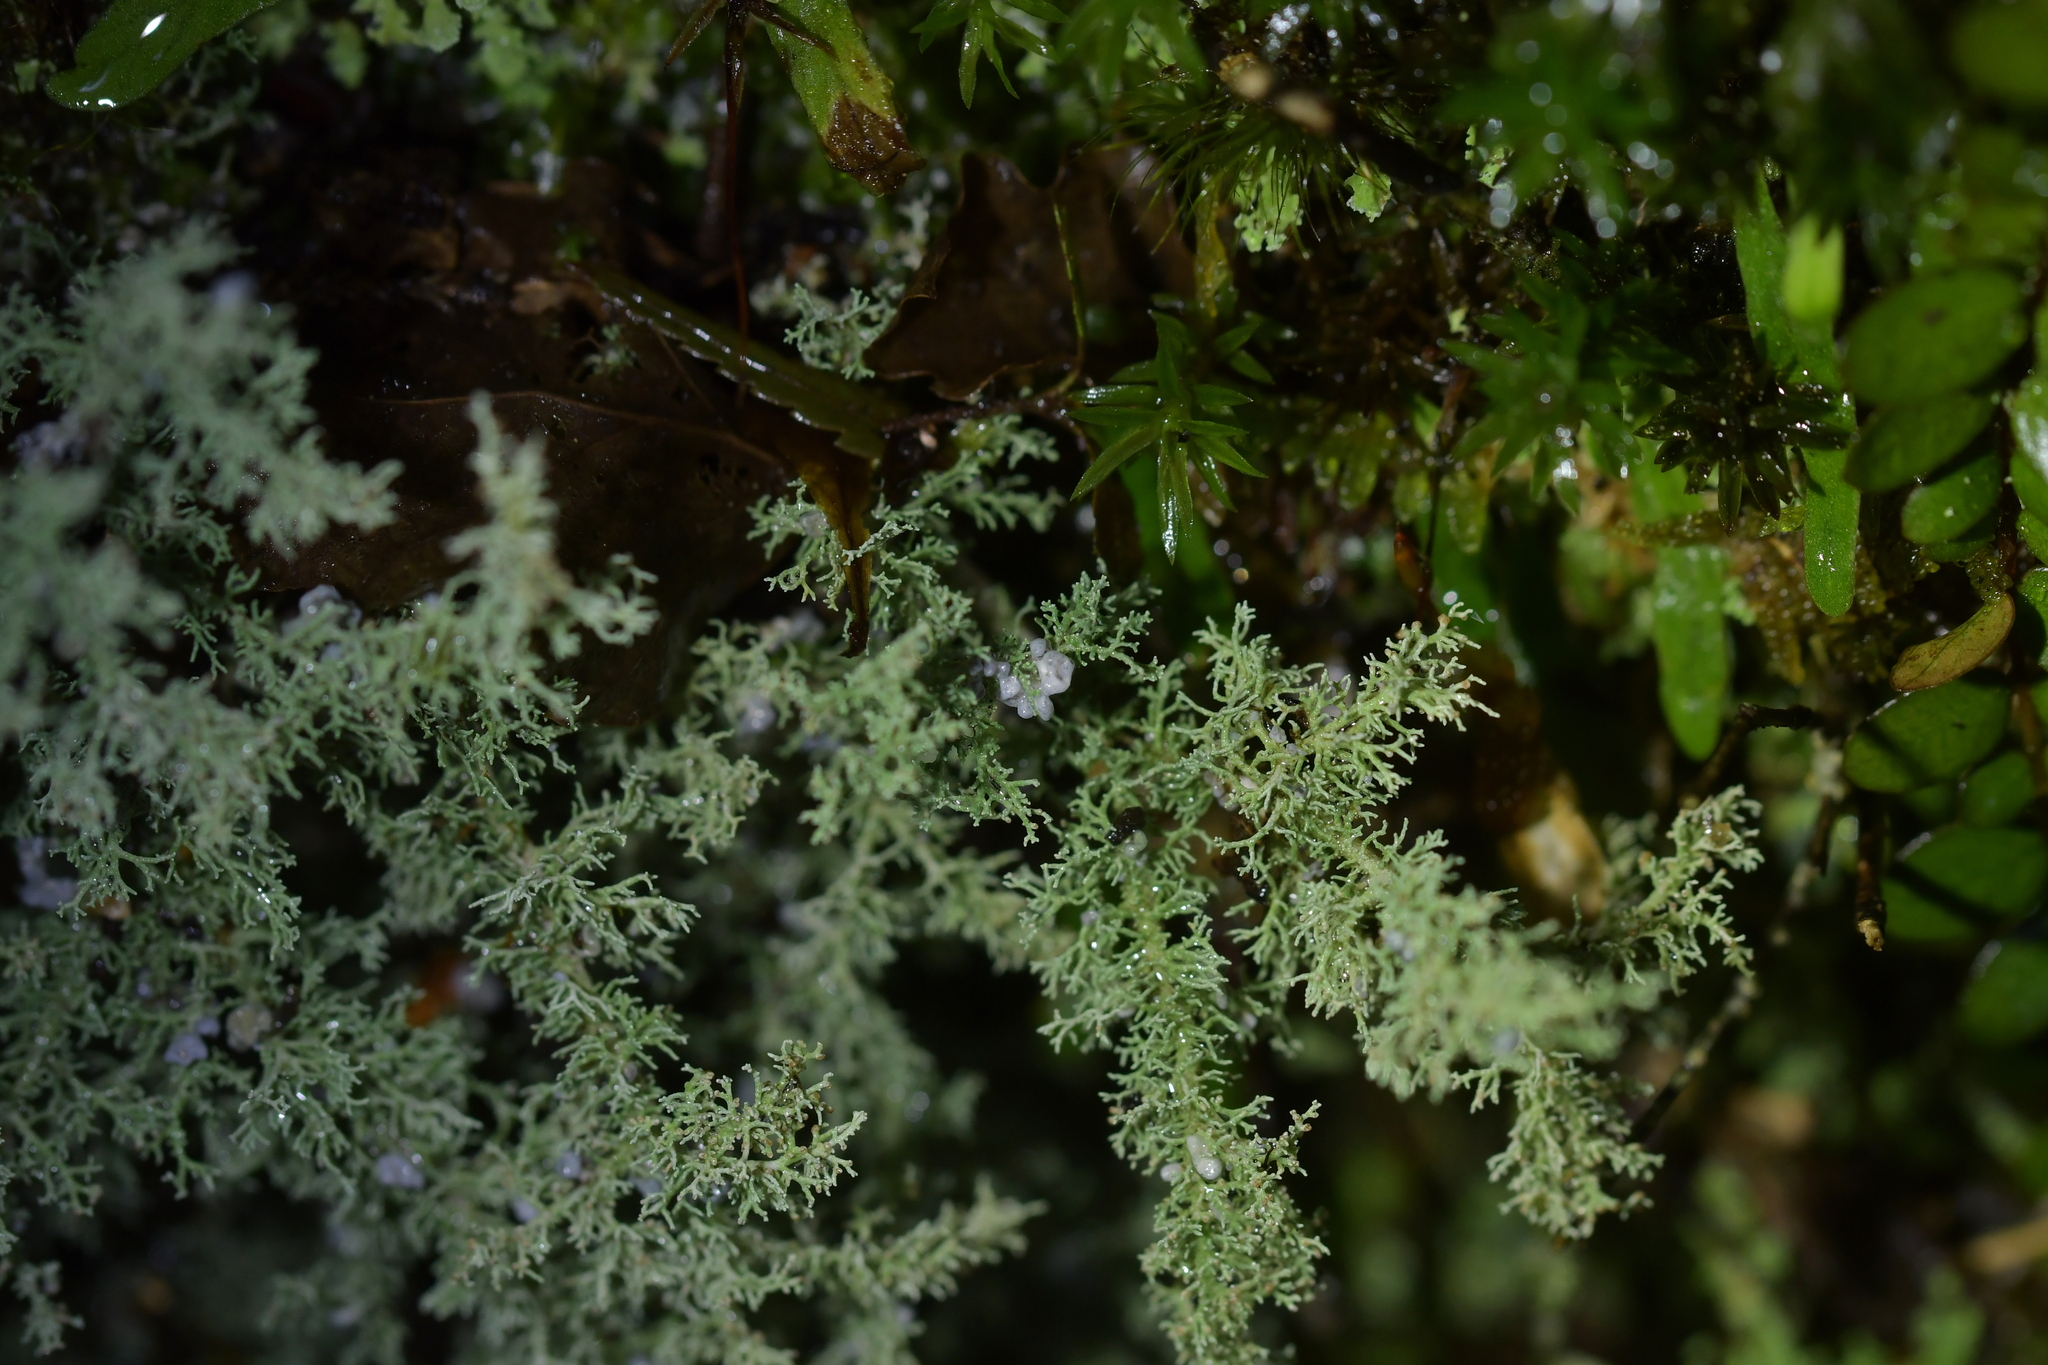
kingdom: Fungi
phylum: Ascomycota
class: Lecanoromycetes
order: Lecanorales
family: Stereocaulaceae
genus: Stereocaulon
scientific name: Stereocaulon ramulosum
